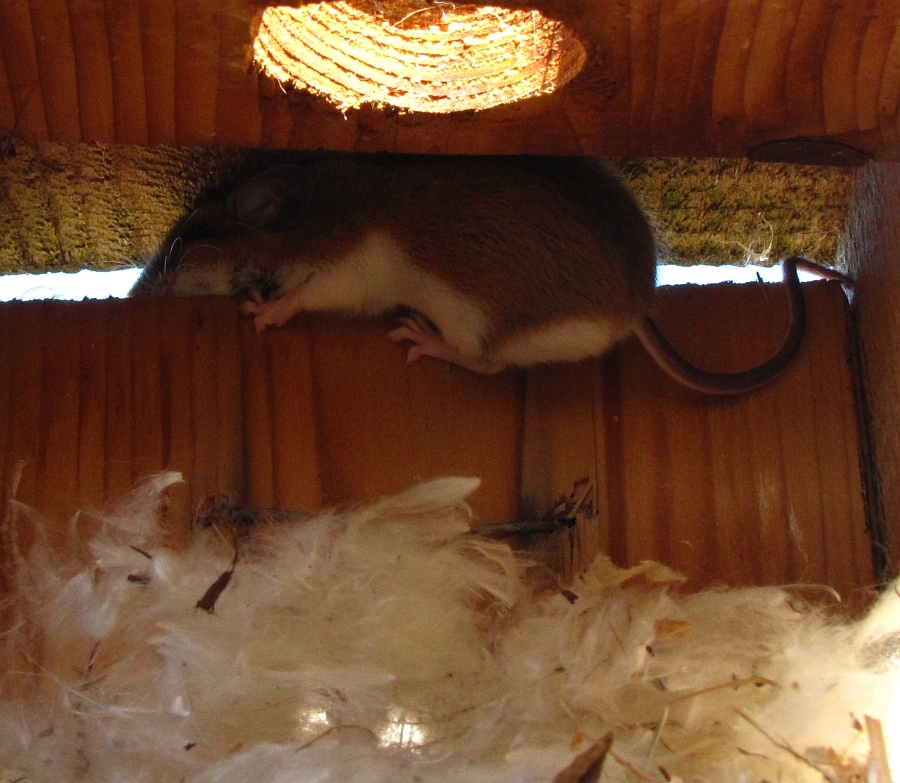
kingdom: Animalia
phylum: Chordata
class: Mammalia
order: Rodentia
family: Cricetidae
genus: Peromyscus
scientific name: Peromyscus
